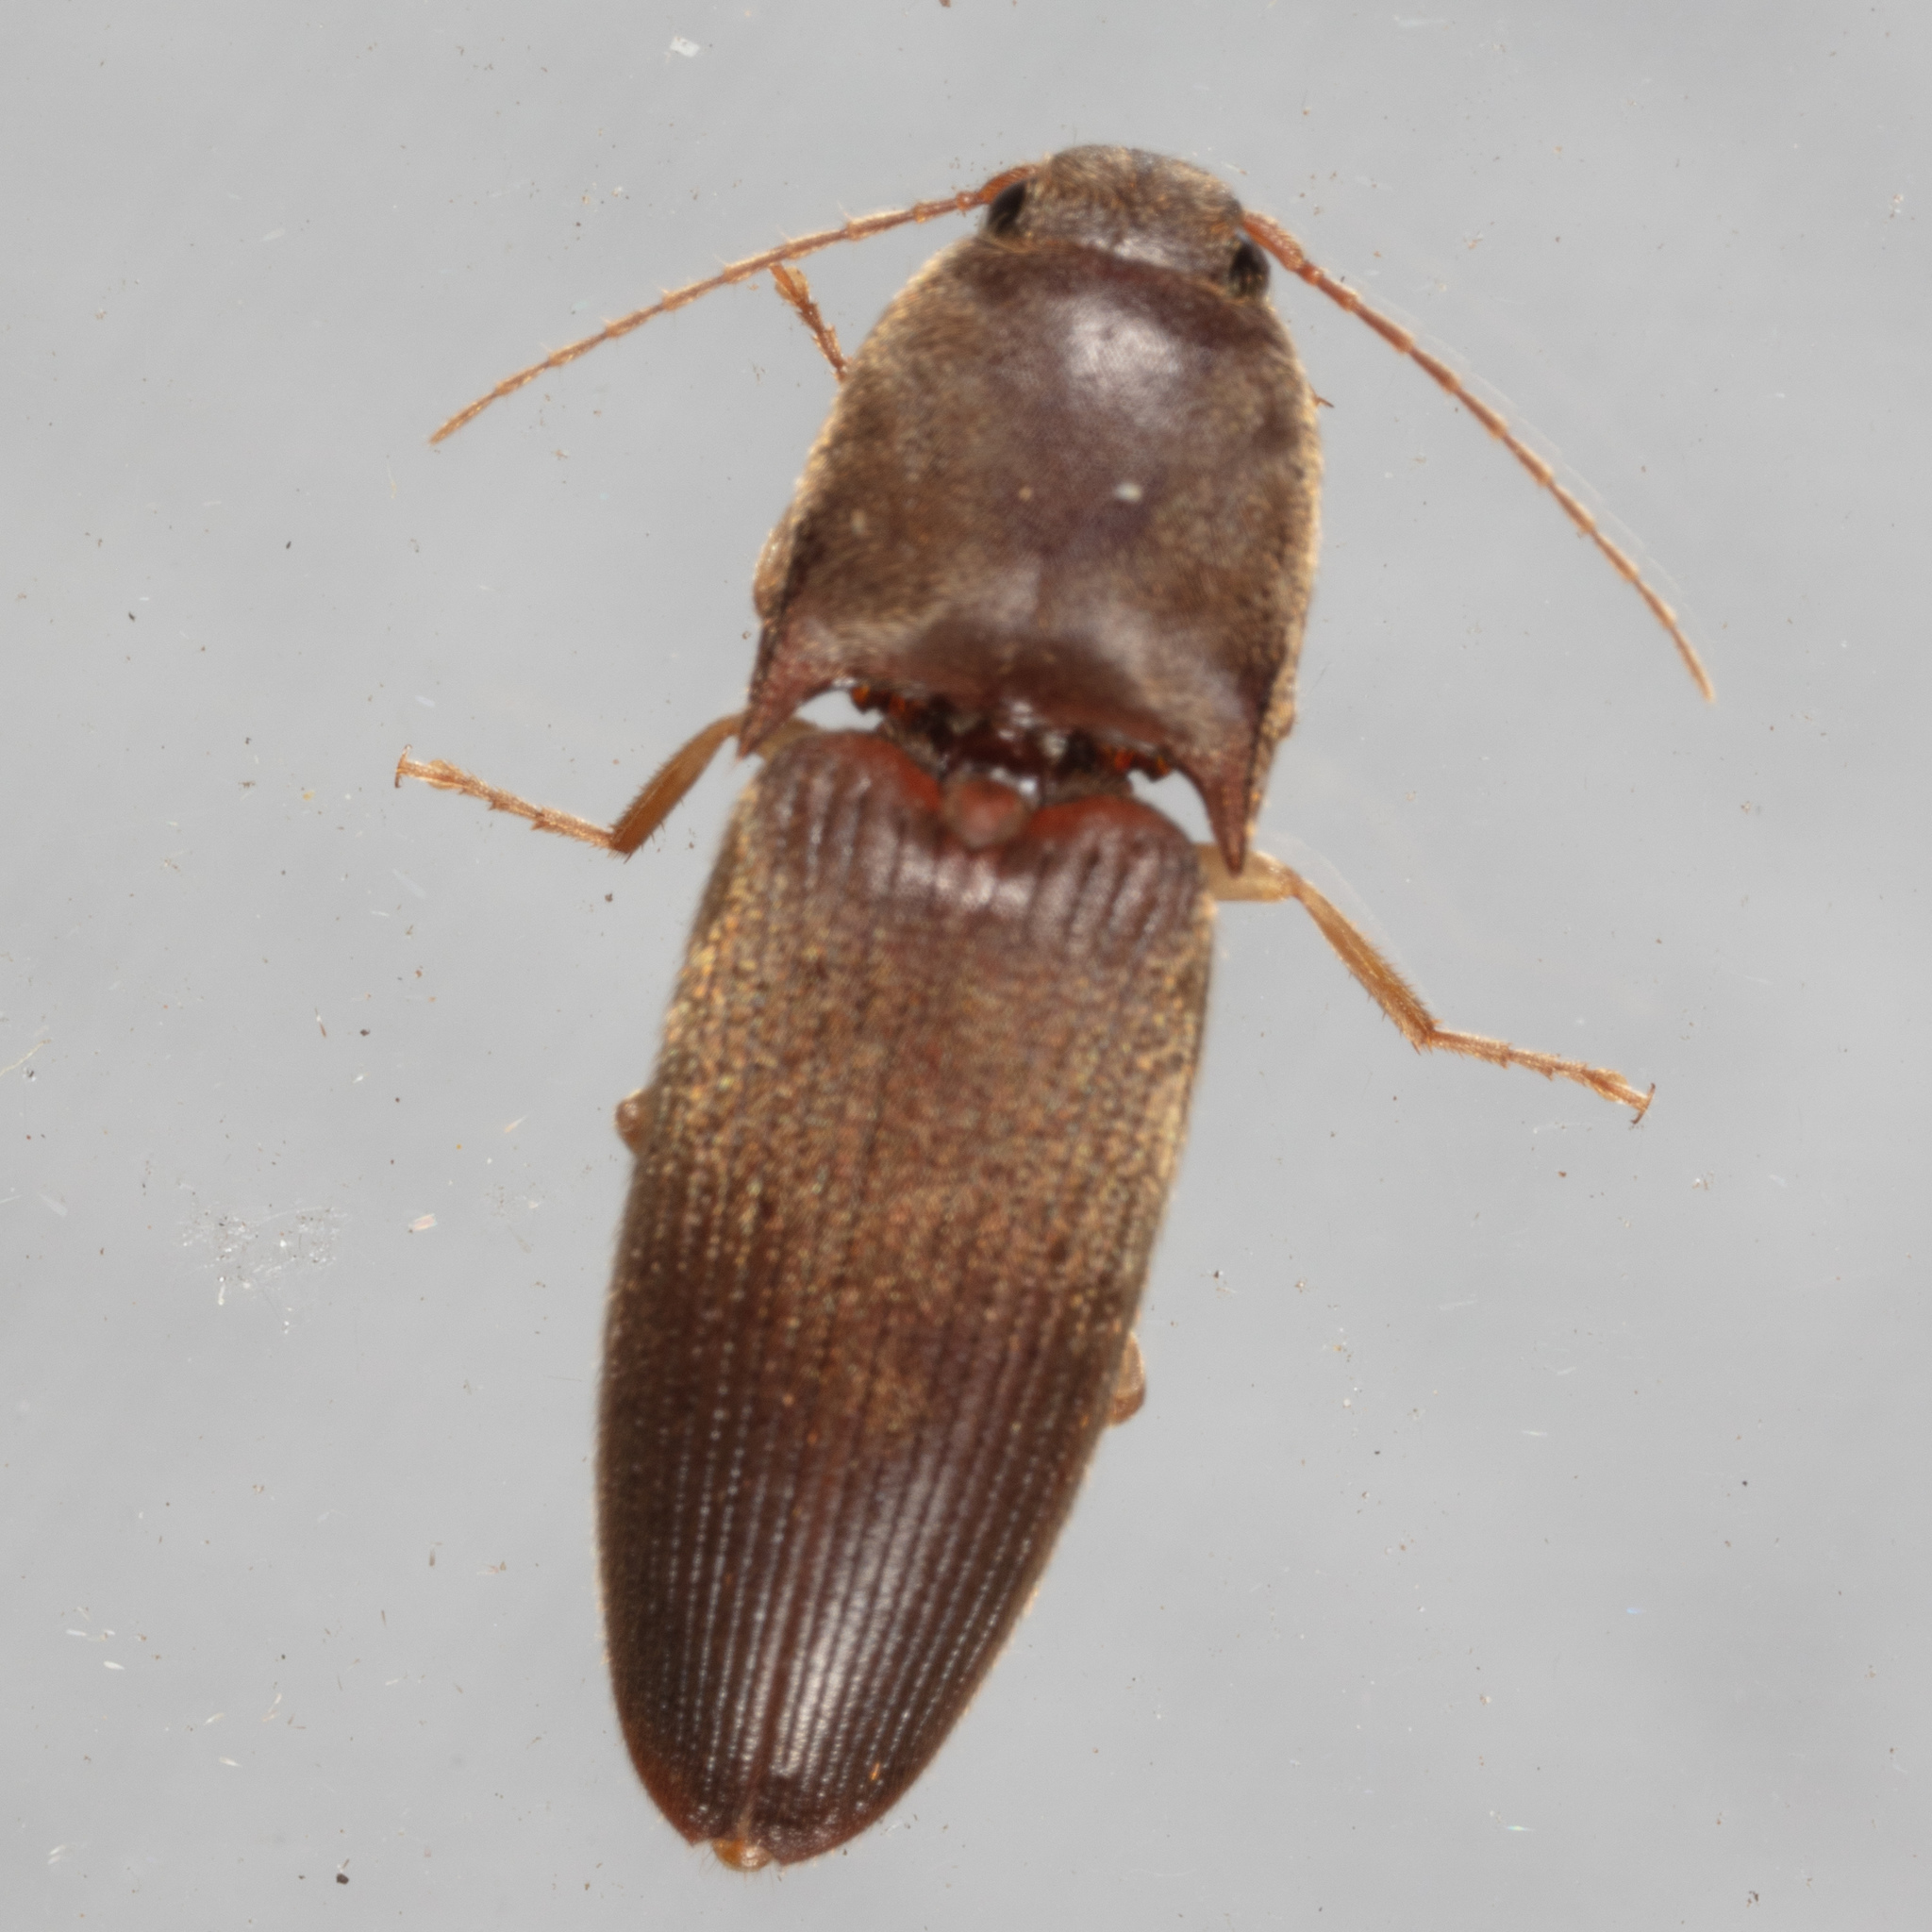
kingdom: Animalia
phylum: Arthropoda
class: Insecta
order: Coleoptera
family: Elateridae
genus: Conoderus
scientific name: Conoderus exsul
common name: Click beetle
